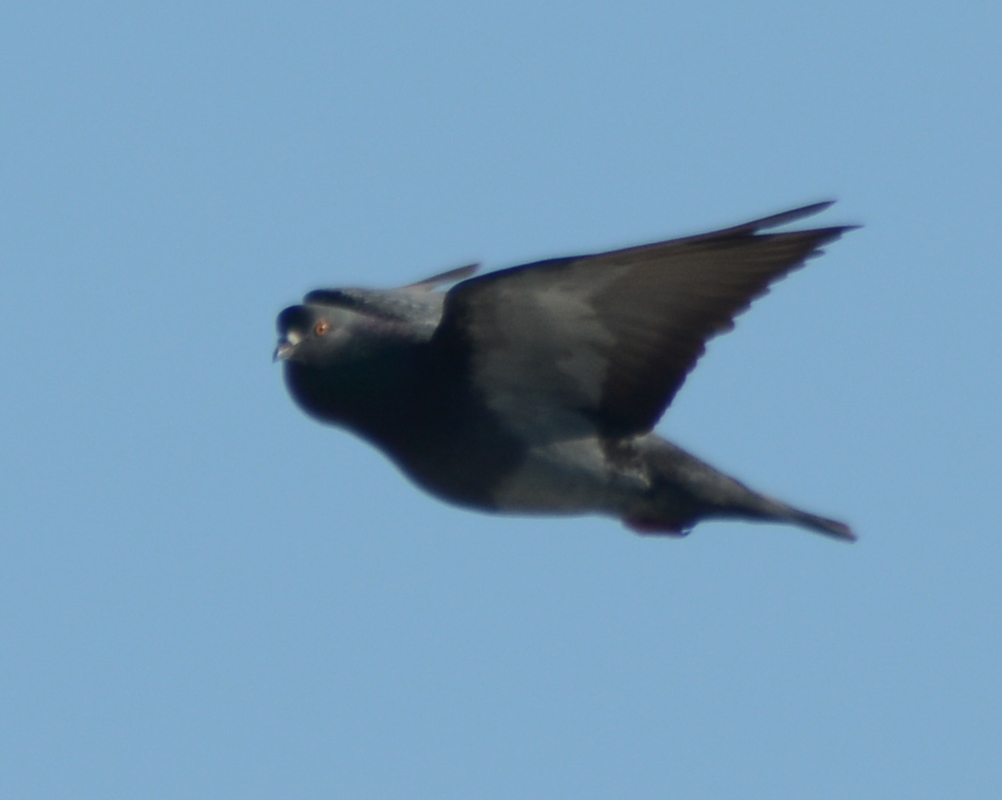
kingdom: Animalia
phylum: Chordata
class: Aves
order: Columbiformes
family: Columbidae
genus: Columba
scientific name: Columba livia
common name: Rock pigeon
